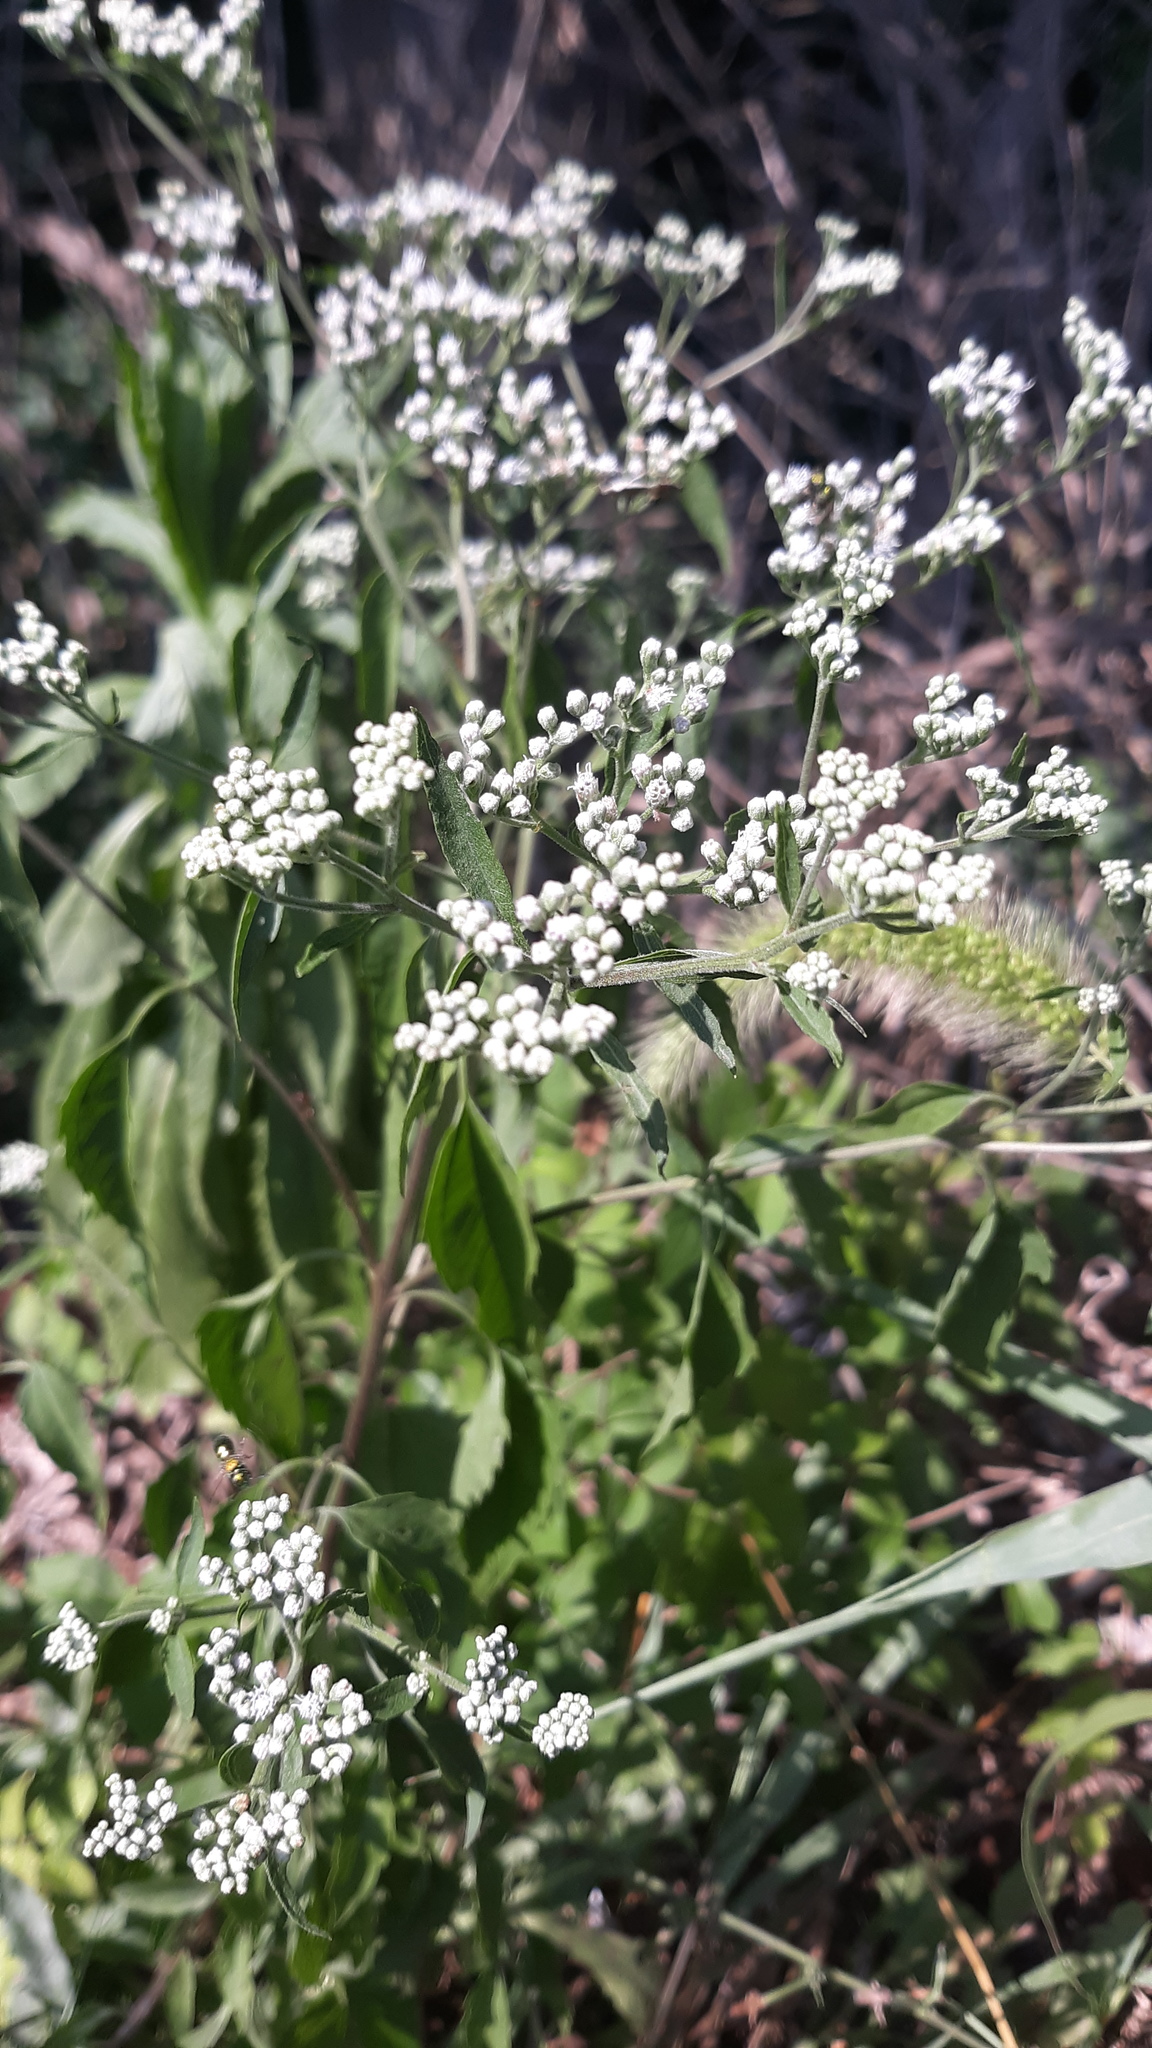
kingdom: Plantae
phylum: Tracheophyta
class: Magnoliopsida
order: Asterales
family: Asteraceae
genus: Eupatorium
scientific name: Eupatorium serotinum
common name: Late boneset
